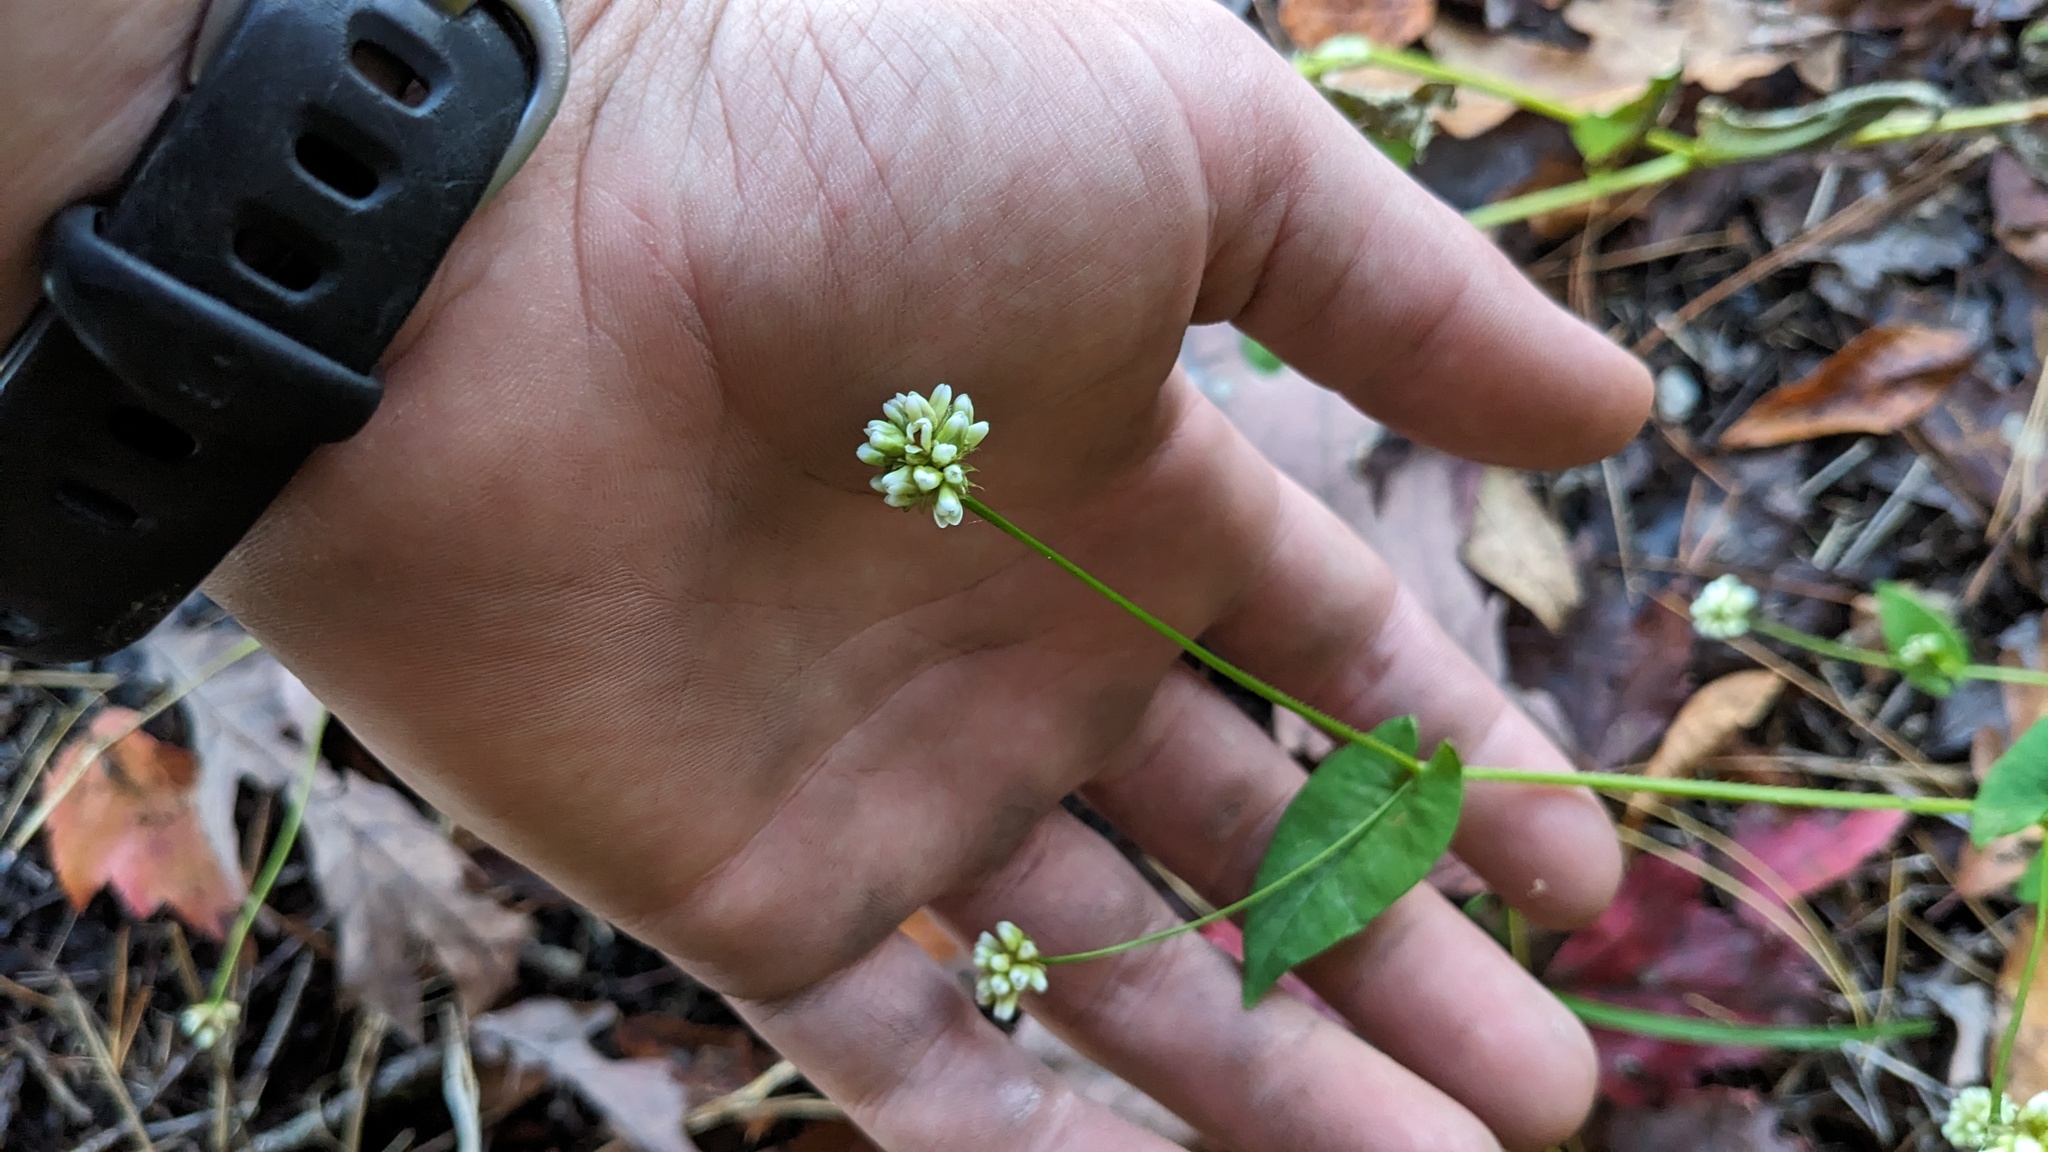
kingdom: Plantae
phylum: Tracheophyta
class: Magnoliopsida
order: Caryophyllales
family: Polygonaceae
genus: Persicaria
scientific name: Persicaria sagittata
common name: American tearthumb
